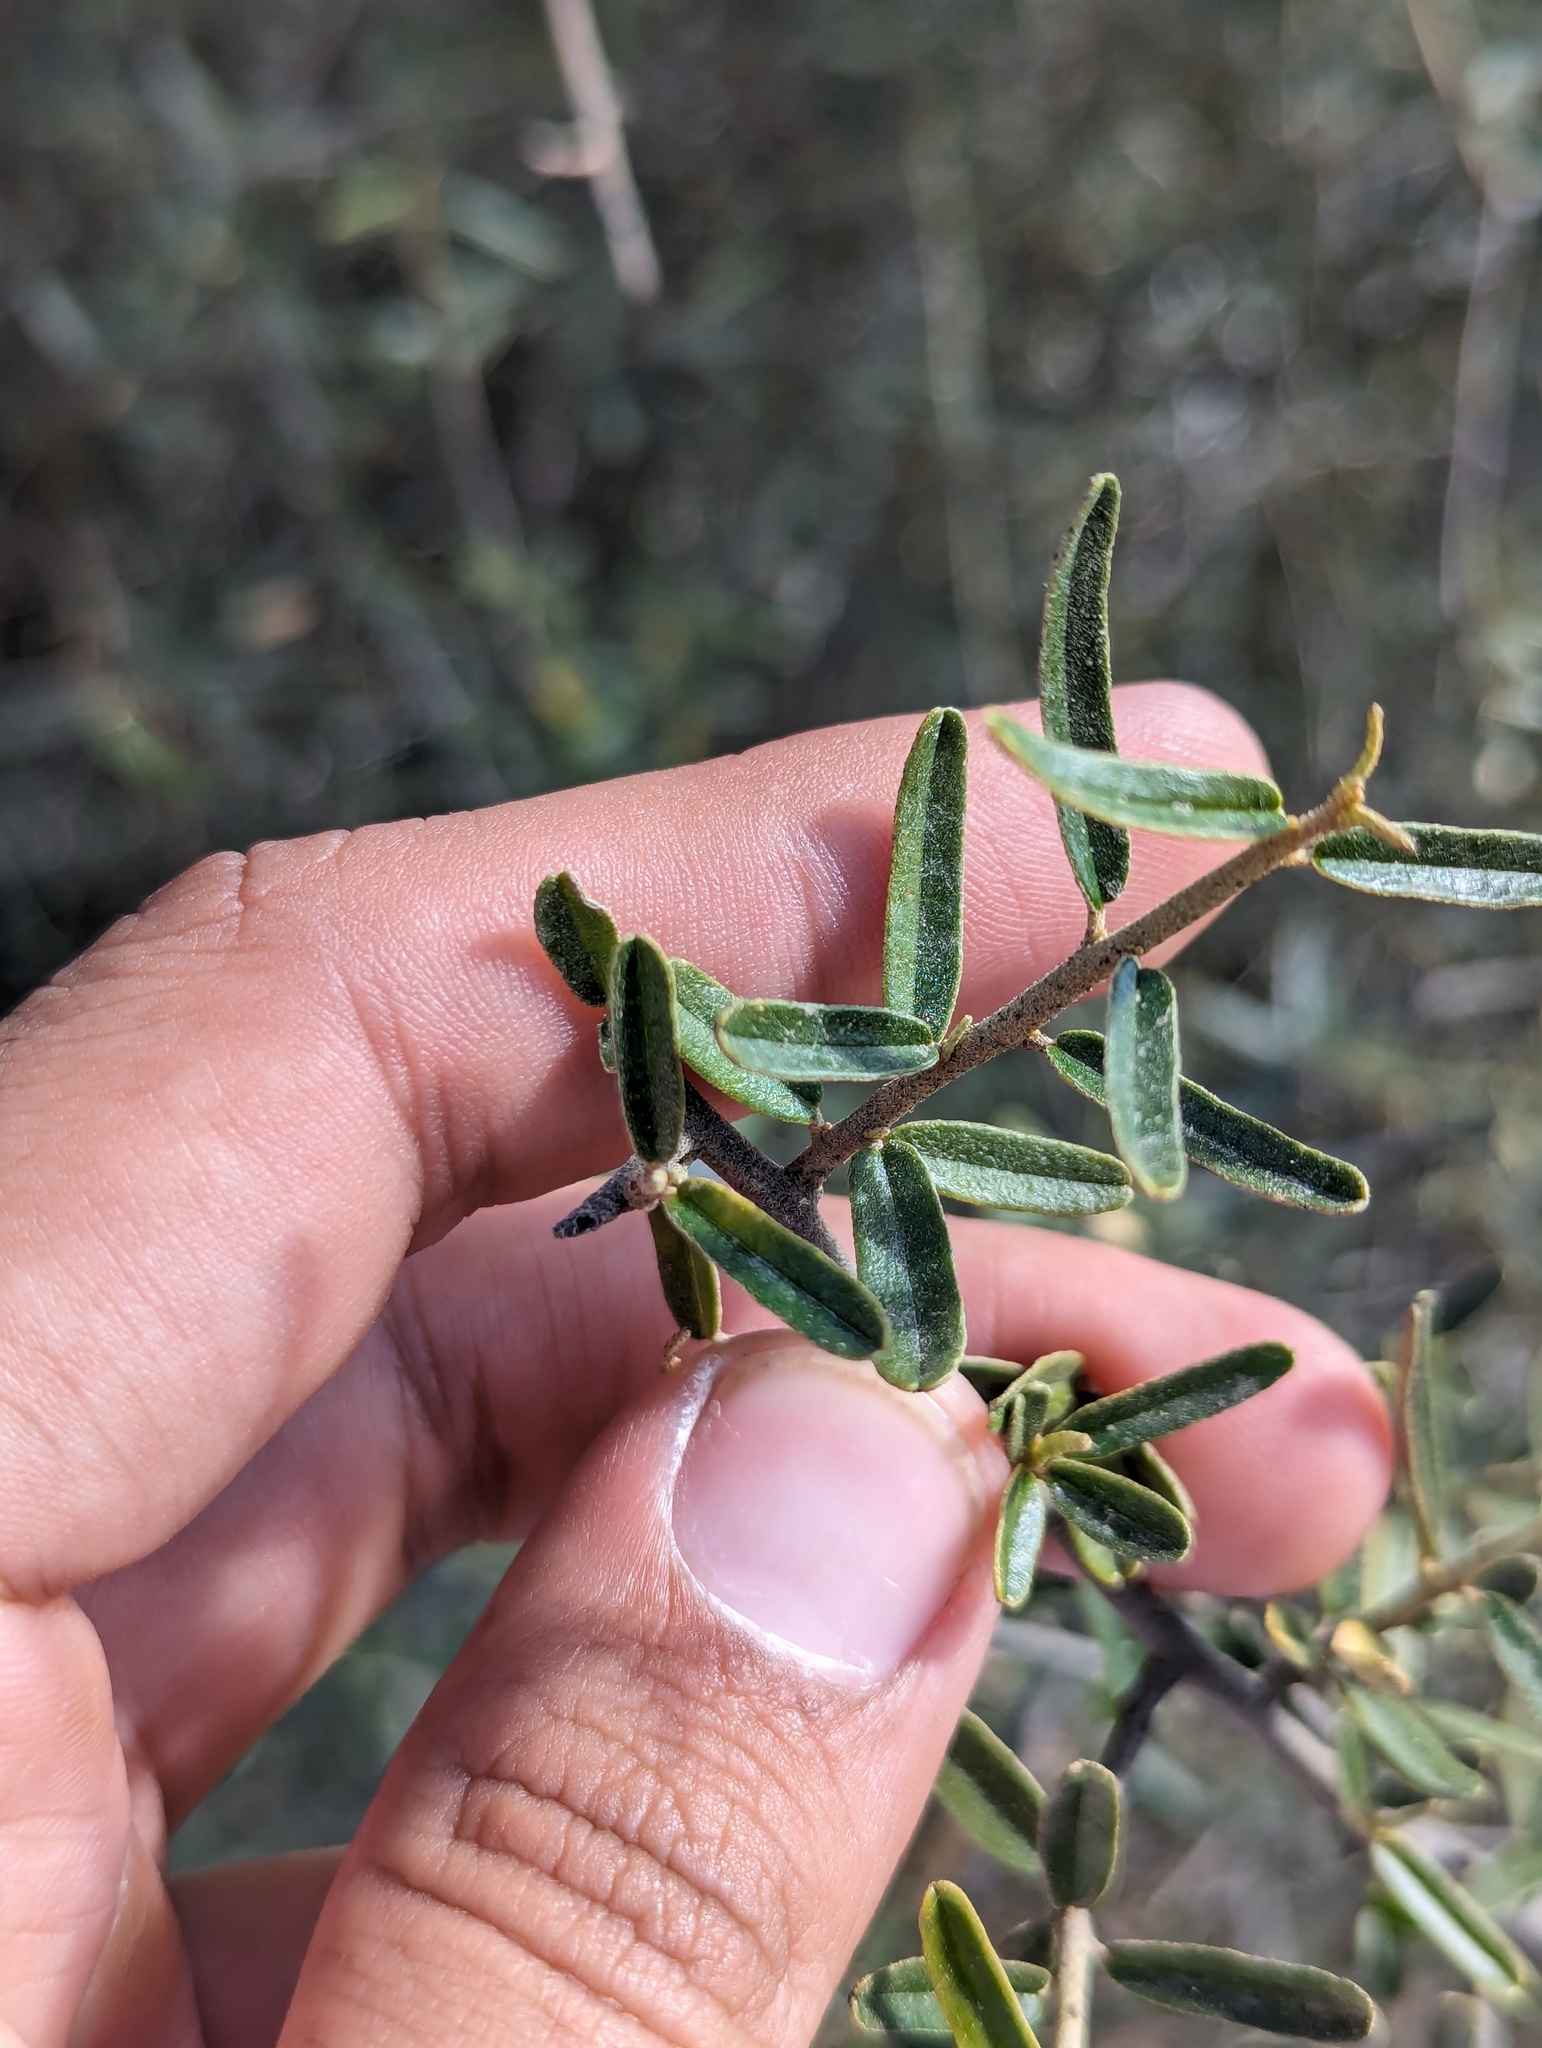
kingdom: Plantae
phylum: Tracheophyta
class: Magnoliopsida
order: Brassicales
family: Capparaceae
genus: Atamisquea
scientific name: Atamisquea emarginata
